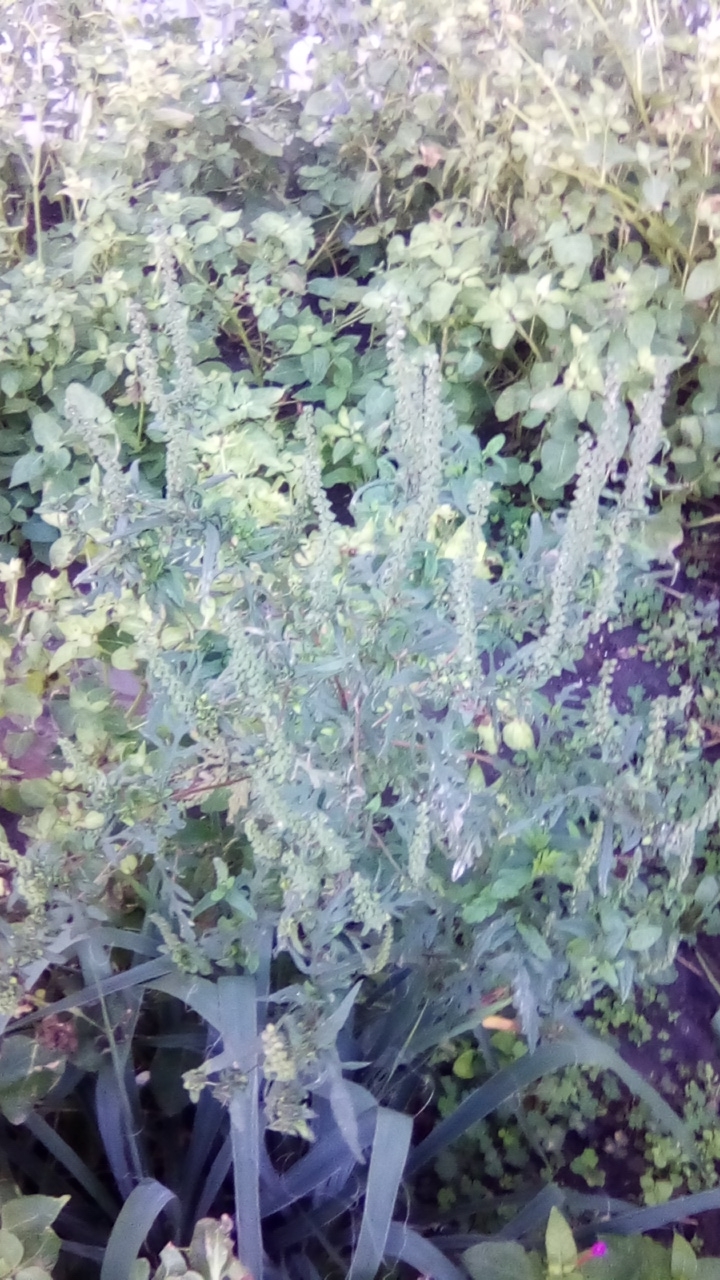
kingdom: Plantae
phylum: Tracheophyta
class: Magnoliopsida
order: Asterales
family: Asteraceae
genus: Ambrosia
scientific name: Ambrosia artemisiifolia
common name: Annual ragweed
